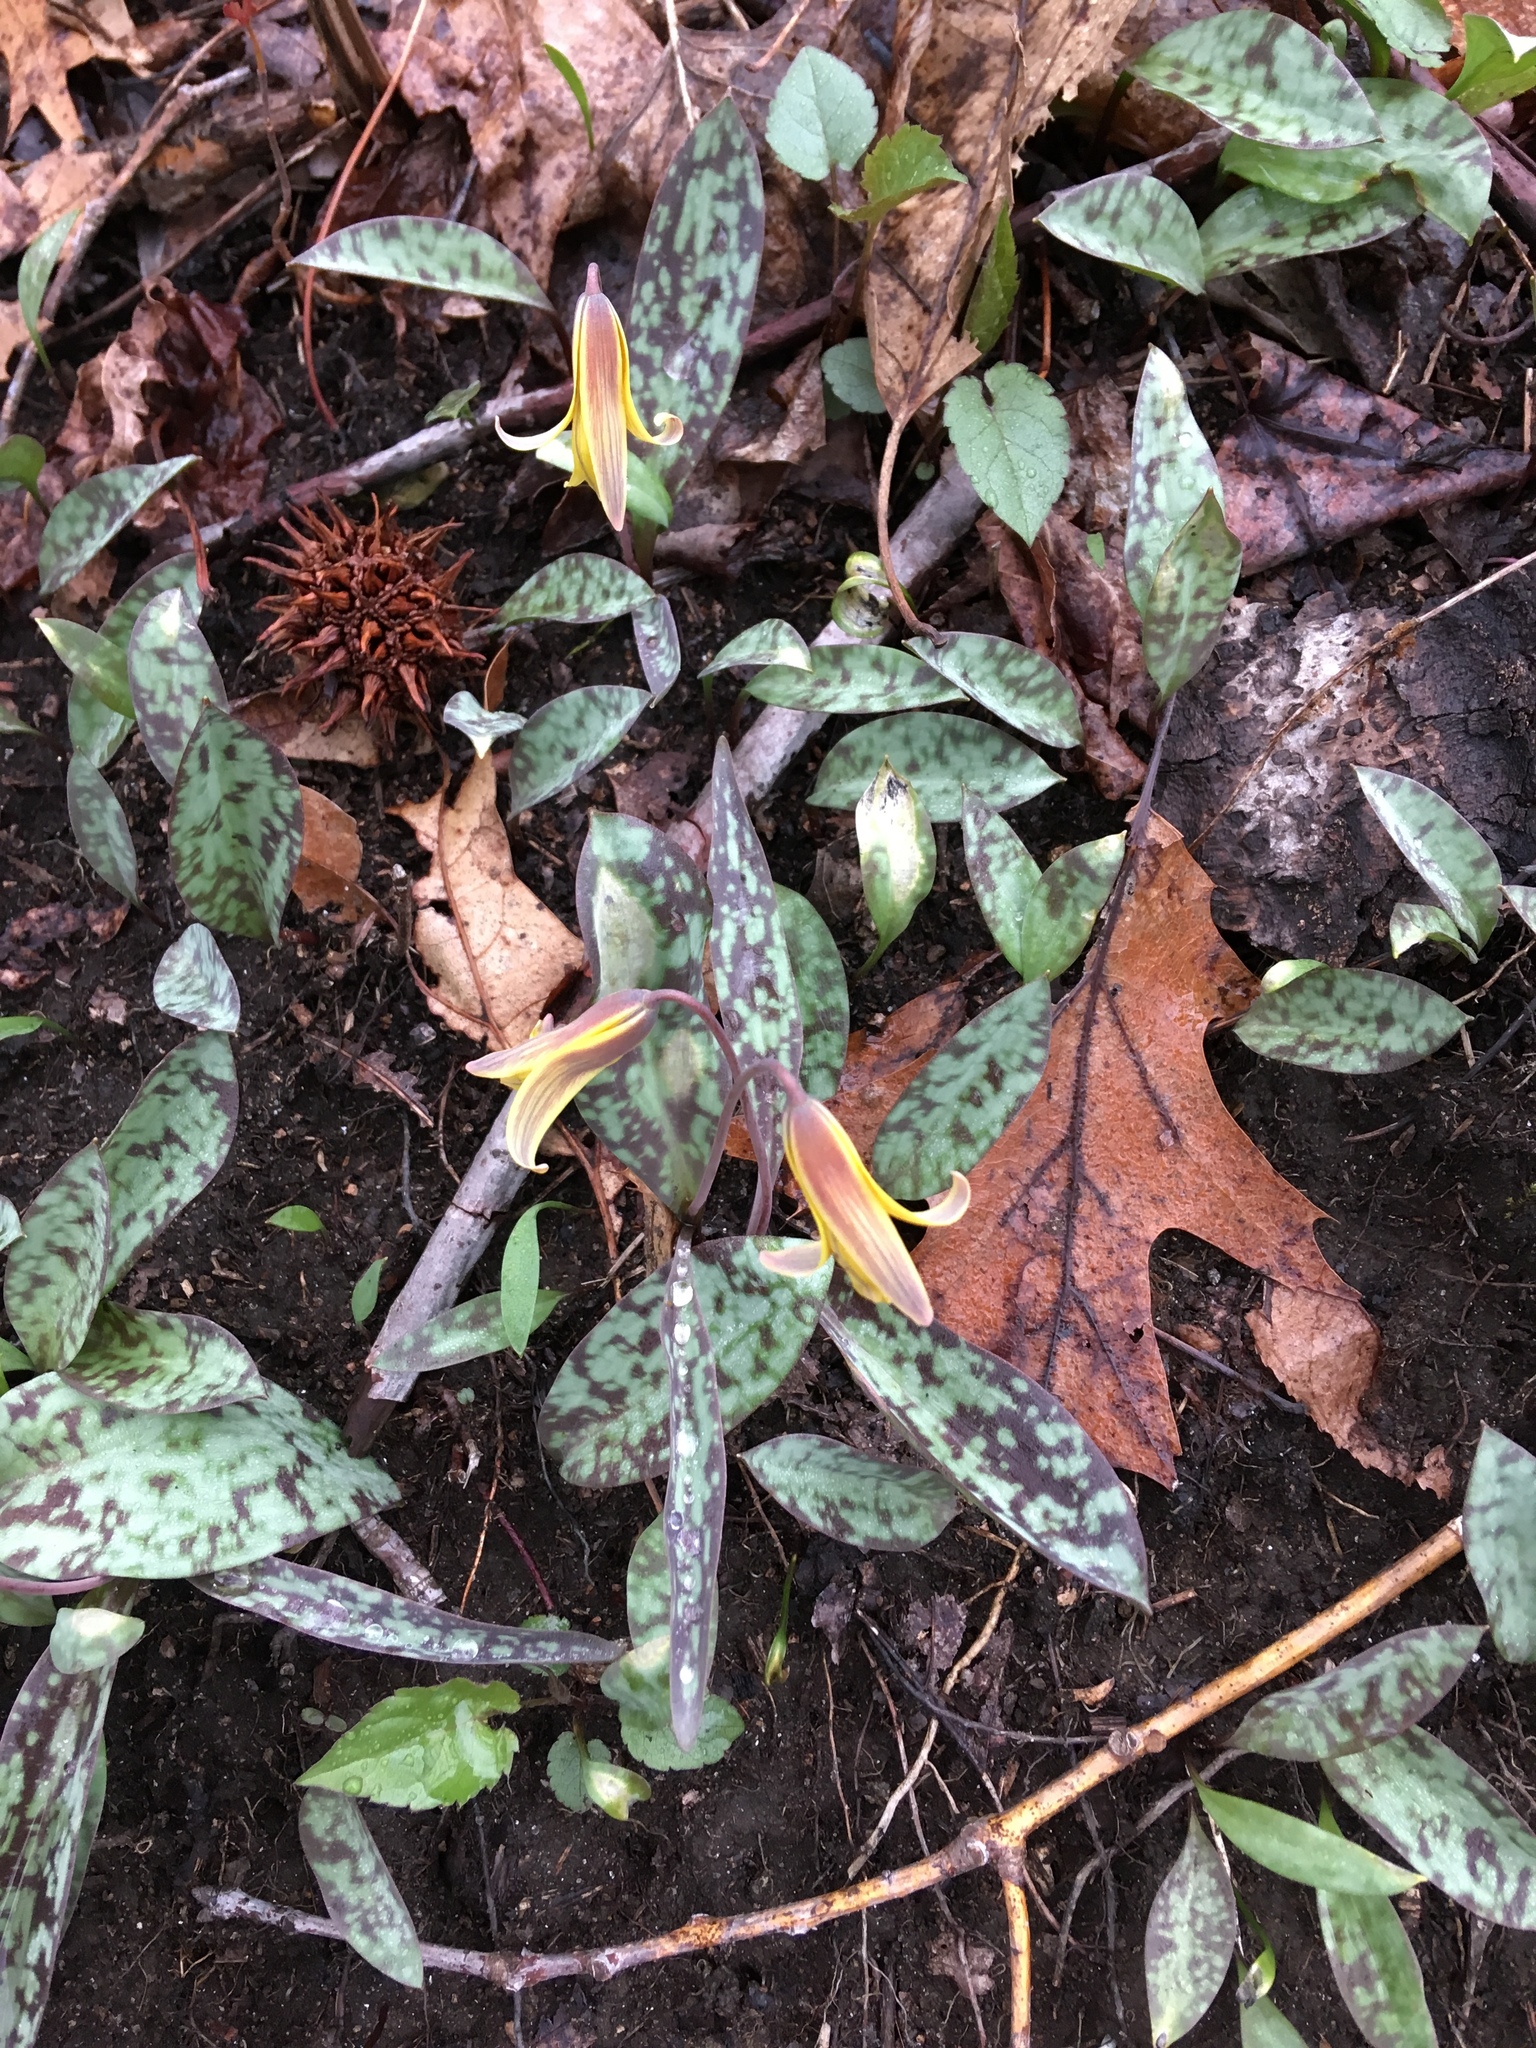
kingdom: Plantae
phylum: Tracheophyta
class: Liliopsida
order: Liliales
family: Liliaceae
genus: Erythronium
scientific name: Erythronium americanum
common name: Yellow adder's-tongue
